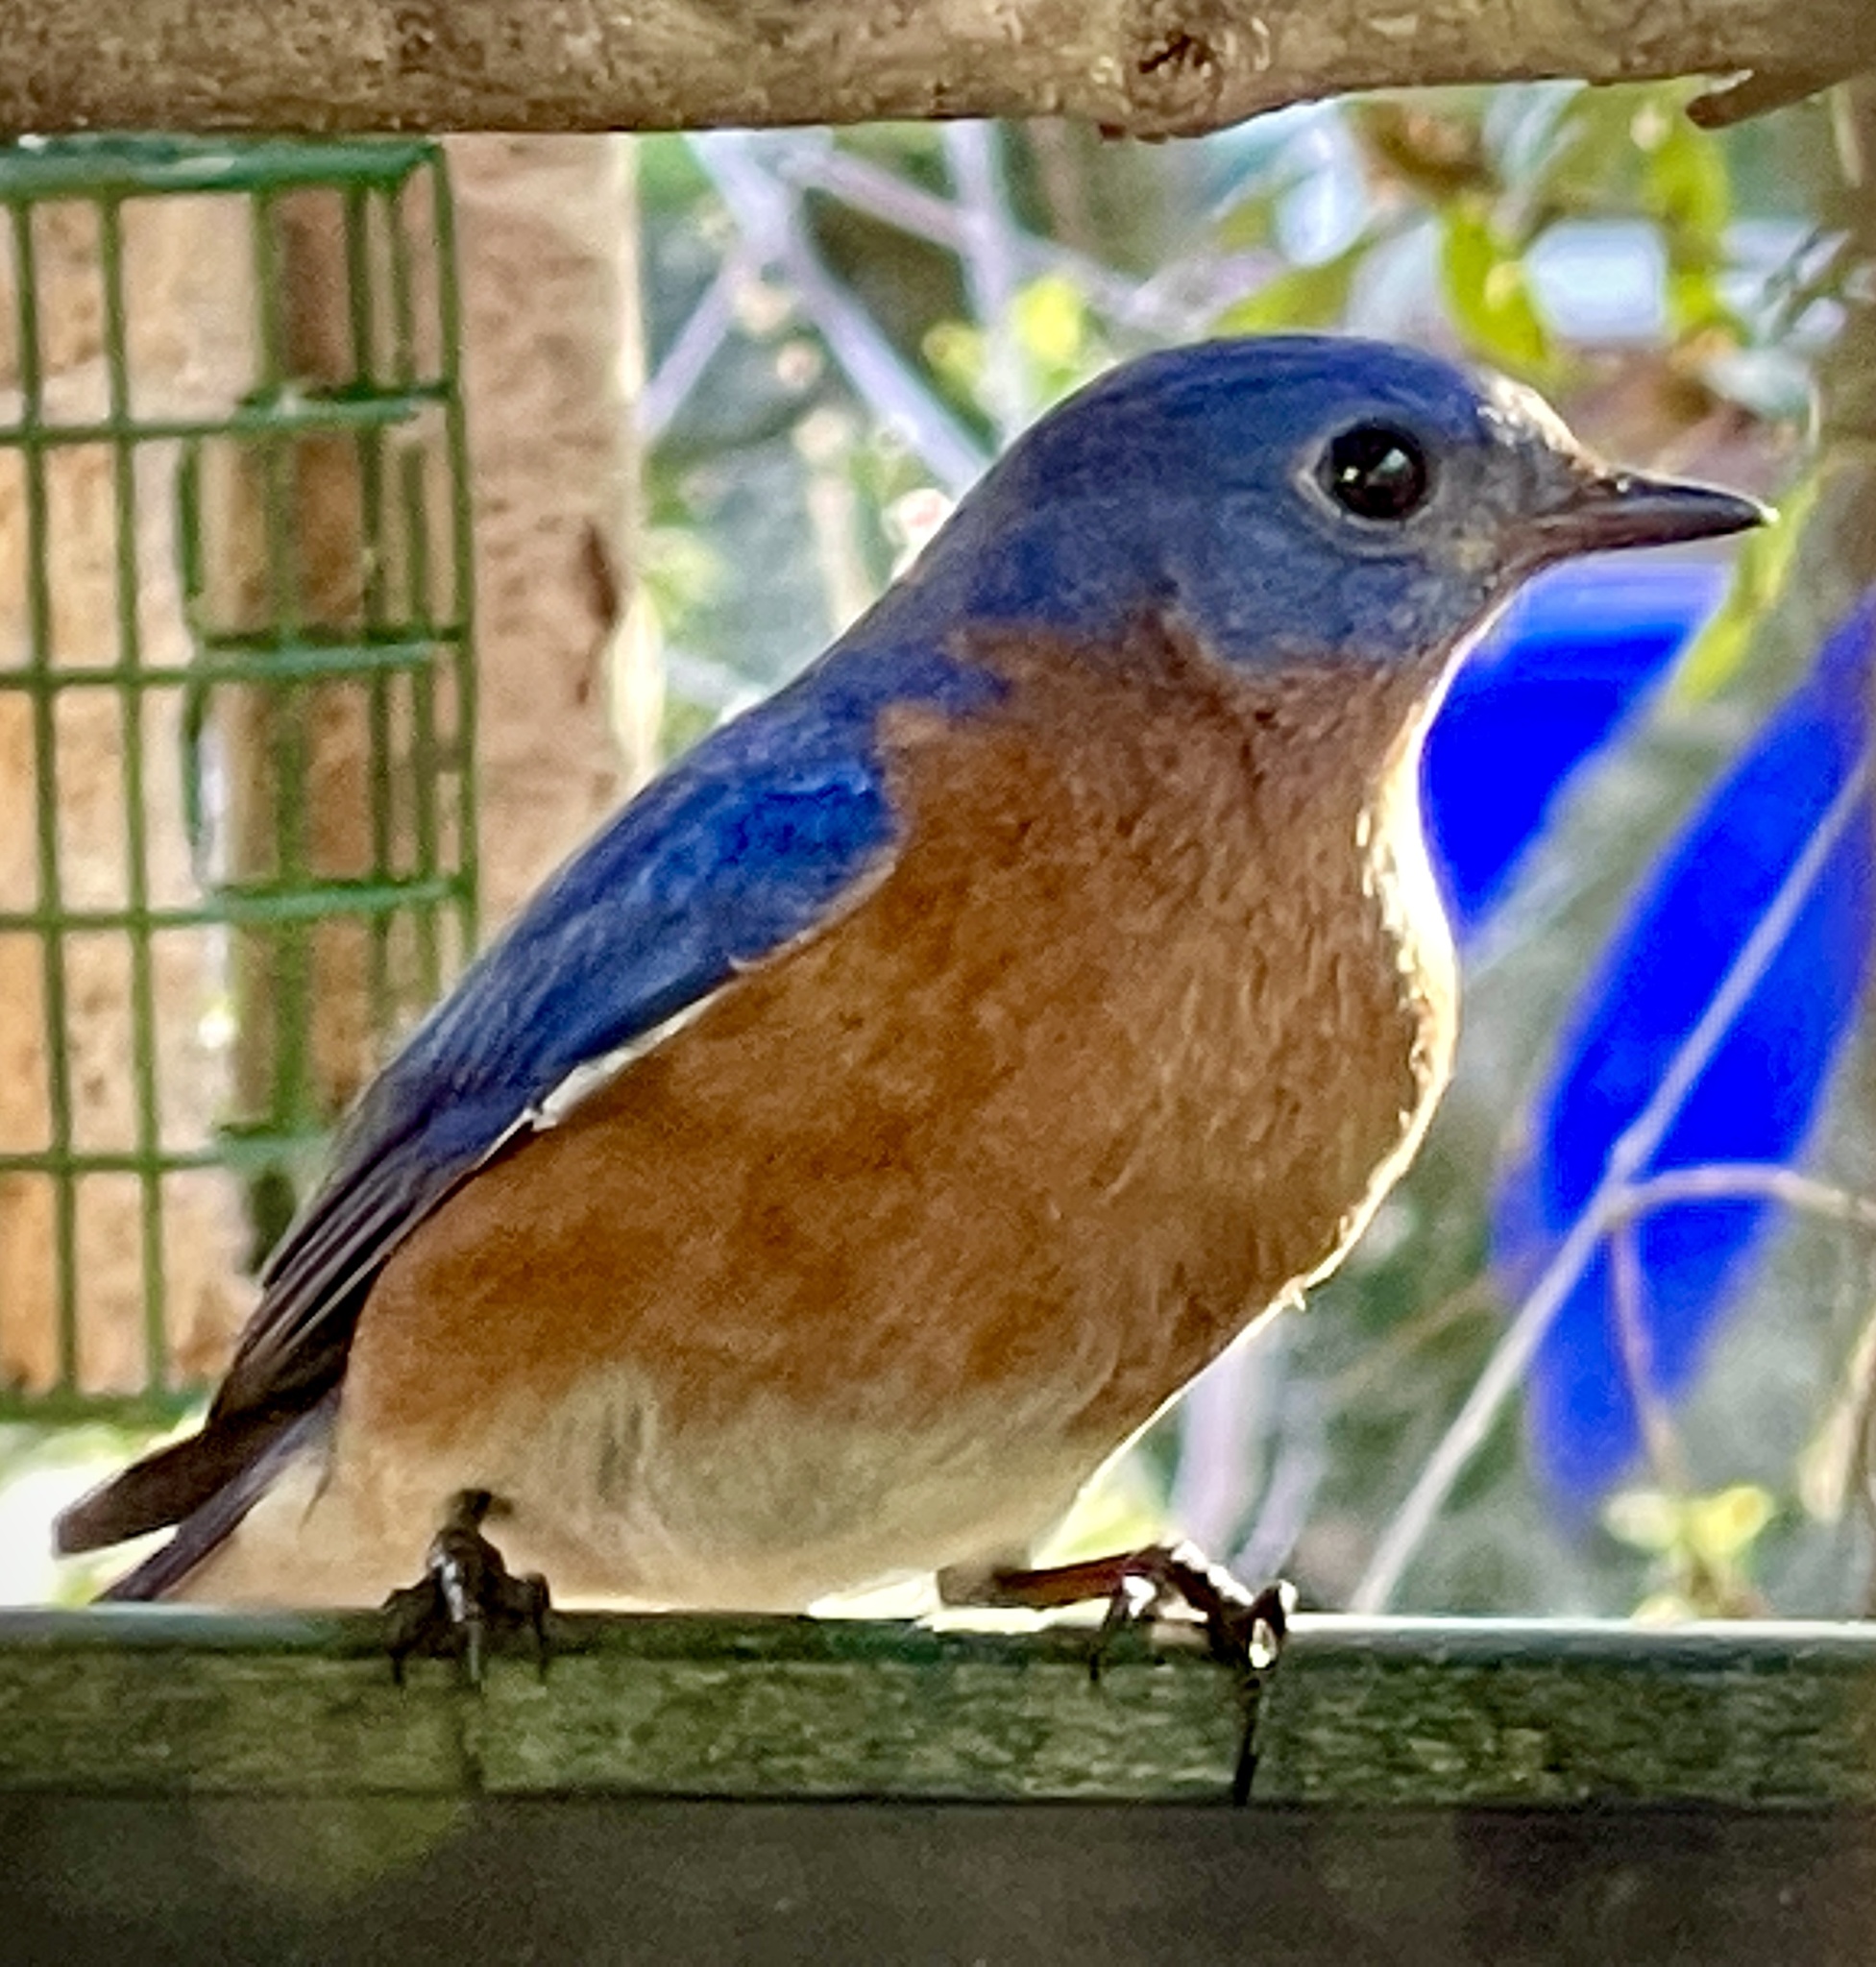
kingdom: Animalia
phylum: Chordata
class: Aves
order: Passeriformes
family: Turdidae
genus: Sialia
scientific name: Sialia sialis
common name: Eastern bluebird
